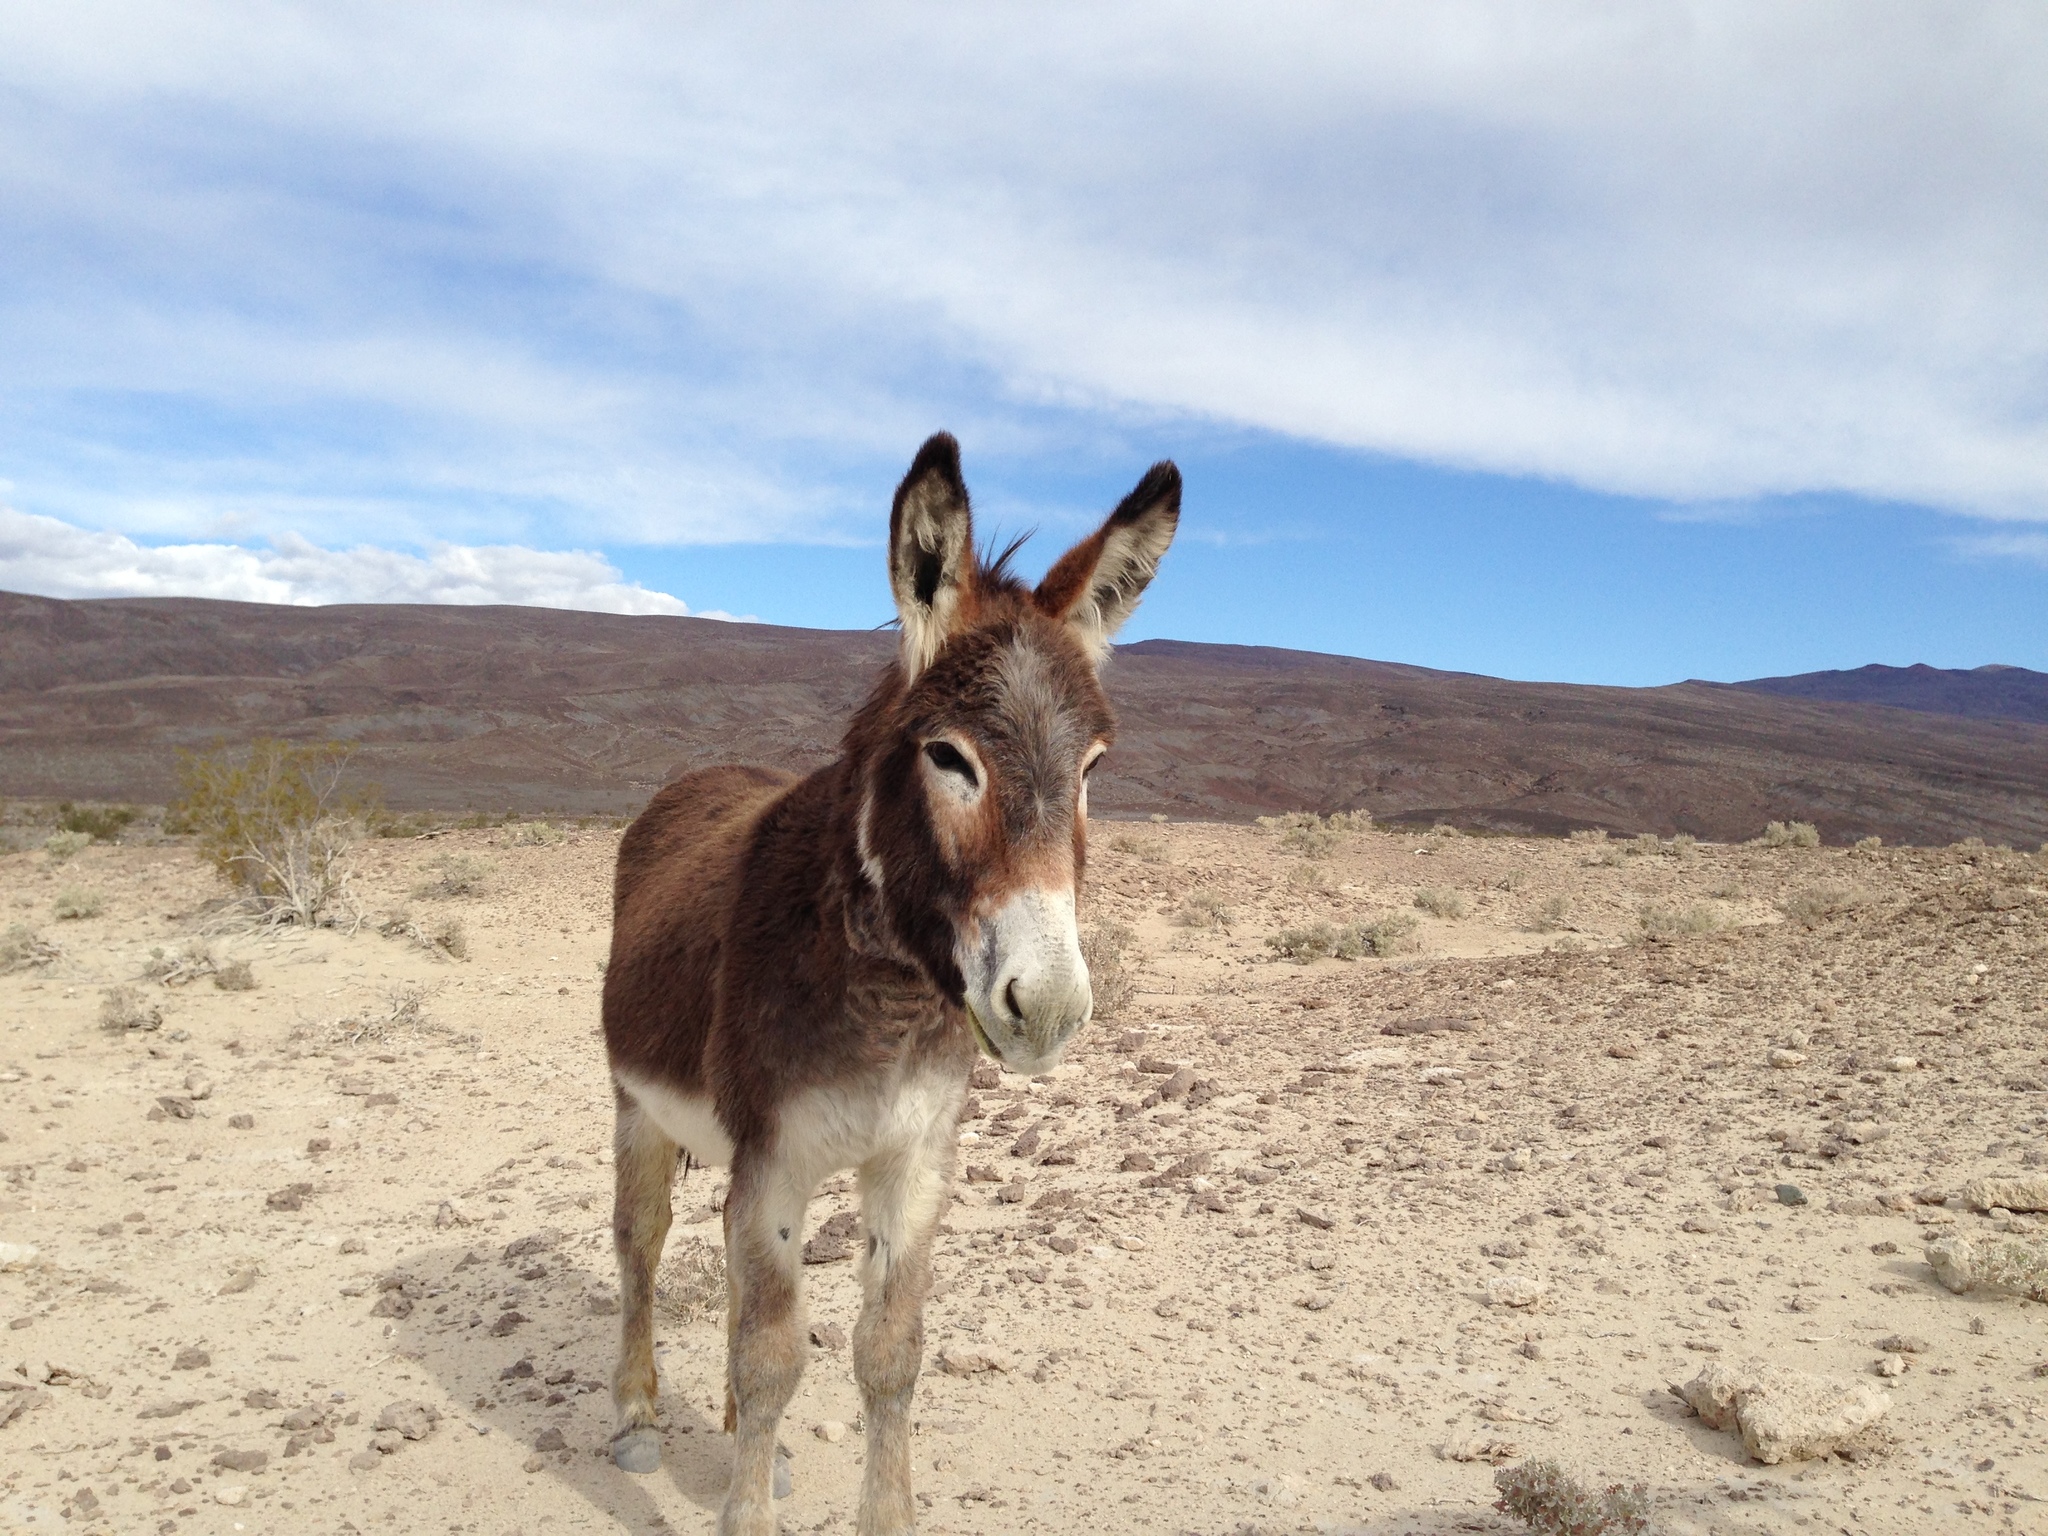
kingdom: Animalia
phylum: Chordata
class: Mammalia
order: Perissodactyla
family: Equidae
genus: Equus
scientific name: Equus asinus
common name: Ass
